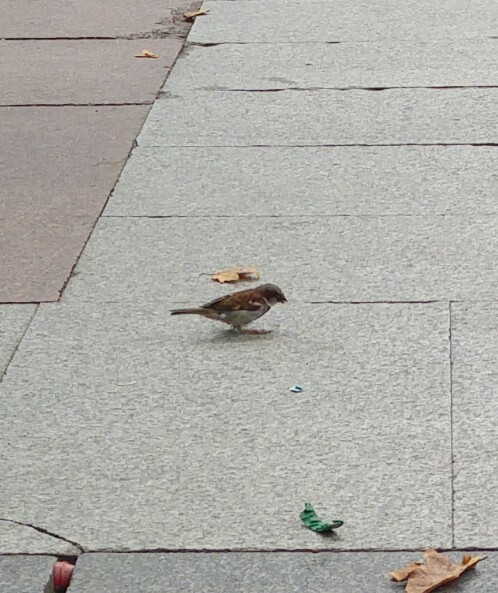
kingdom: Animalia
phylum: Chordata
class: Aves
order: Passeriformes
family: Passeridae
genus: Passer
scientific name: Passer domesticus
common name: House sparrow
